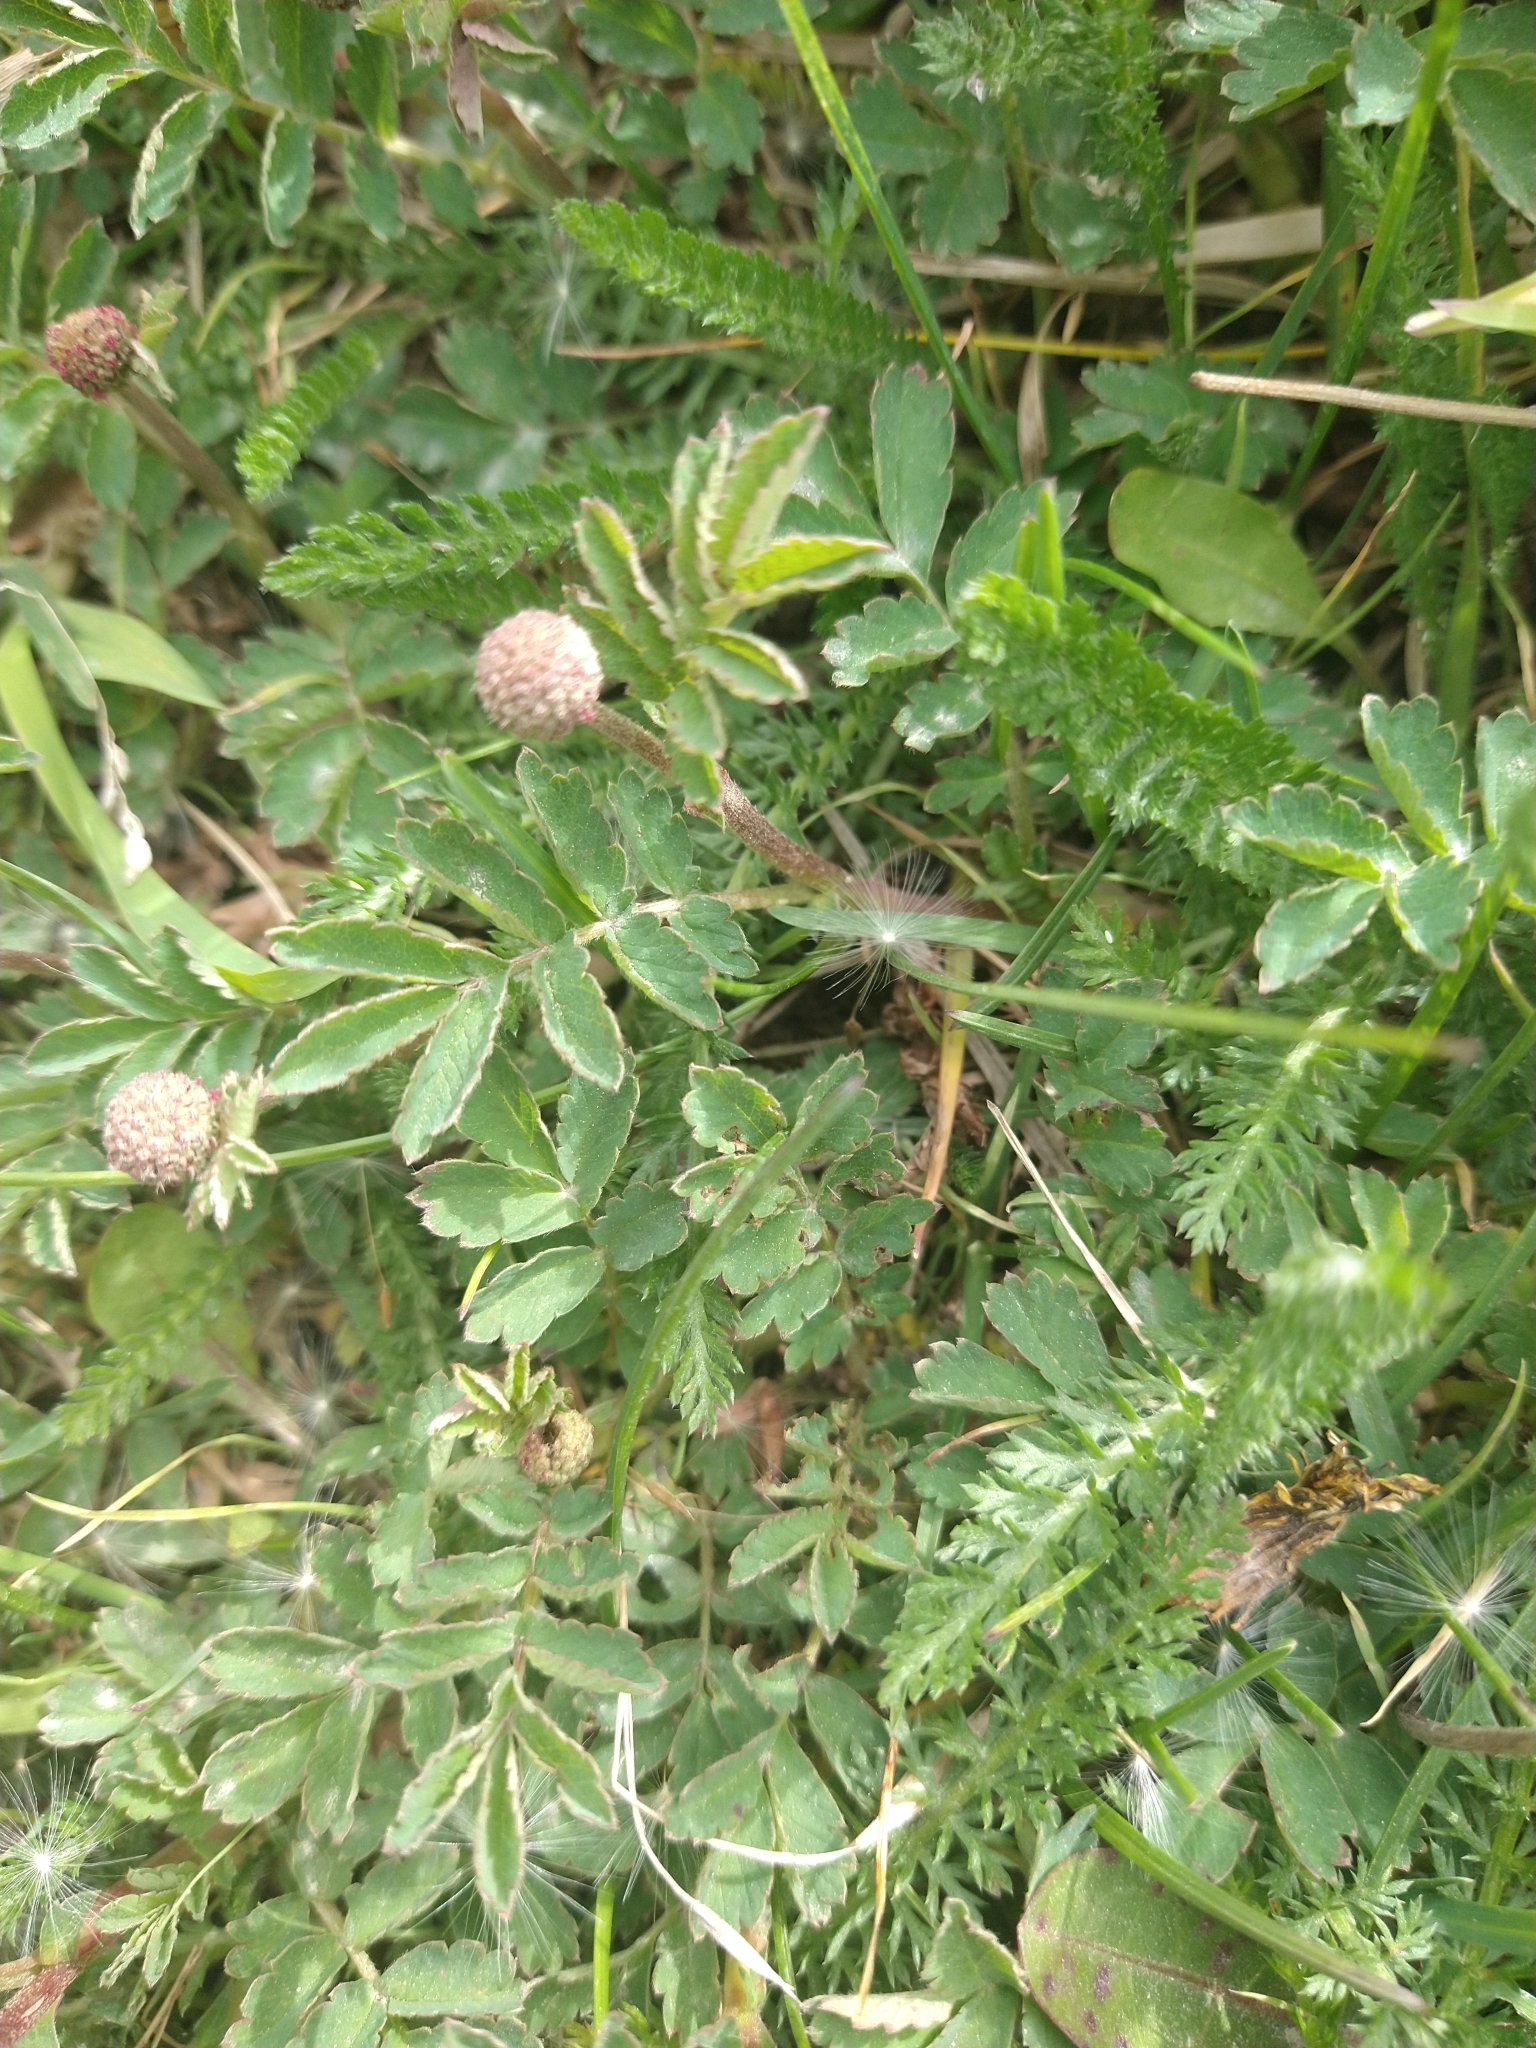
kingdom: Plantae
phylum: Tracheophyta
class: Magnoliopsida
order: Rosales
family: Rosaceae
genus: Acaena
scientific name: Acaena magellanica
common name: New zealand burr
